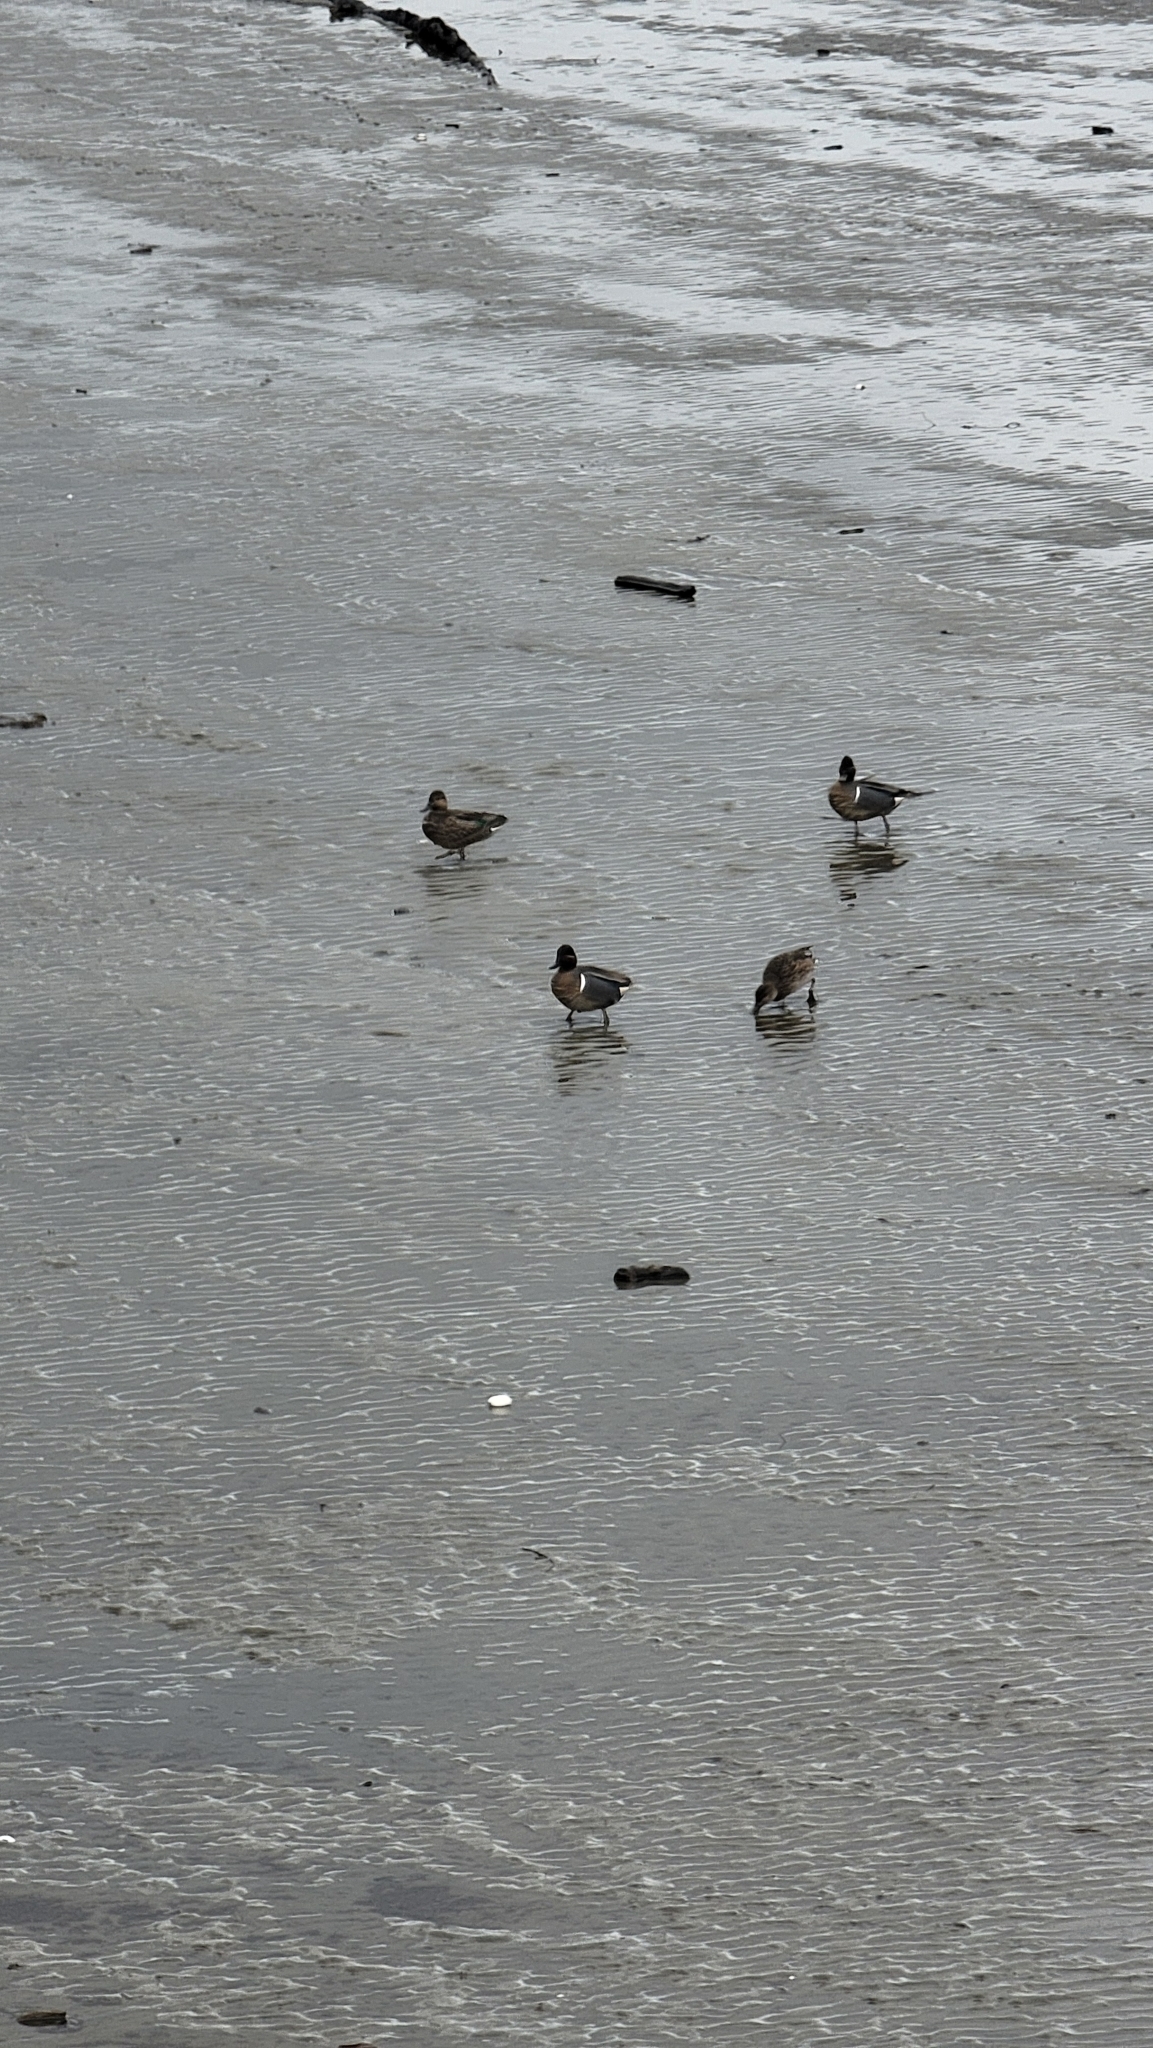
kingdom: Animalia
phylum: Chordata
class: Aves
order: Anseriformes
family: Anatidae
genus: Anas
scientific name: Anas crecca
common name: Eurasian teal
